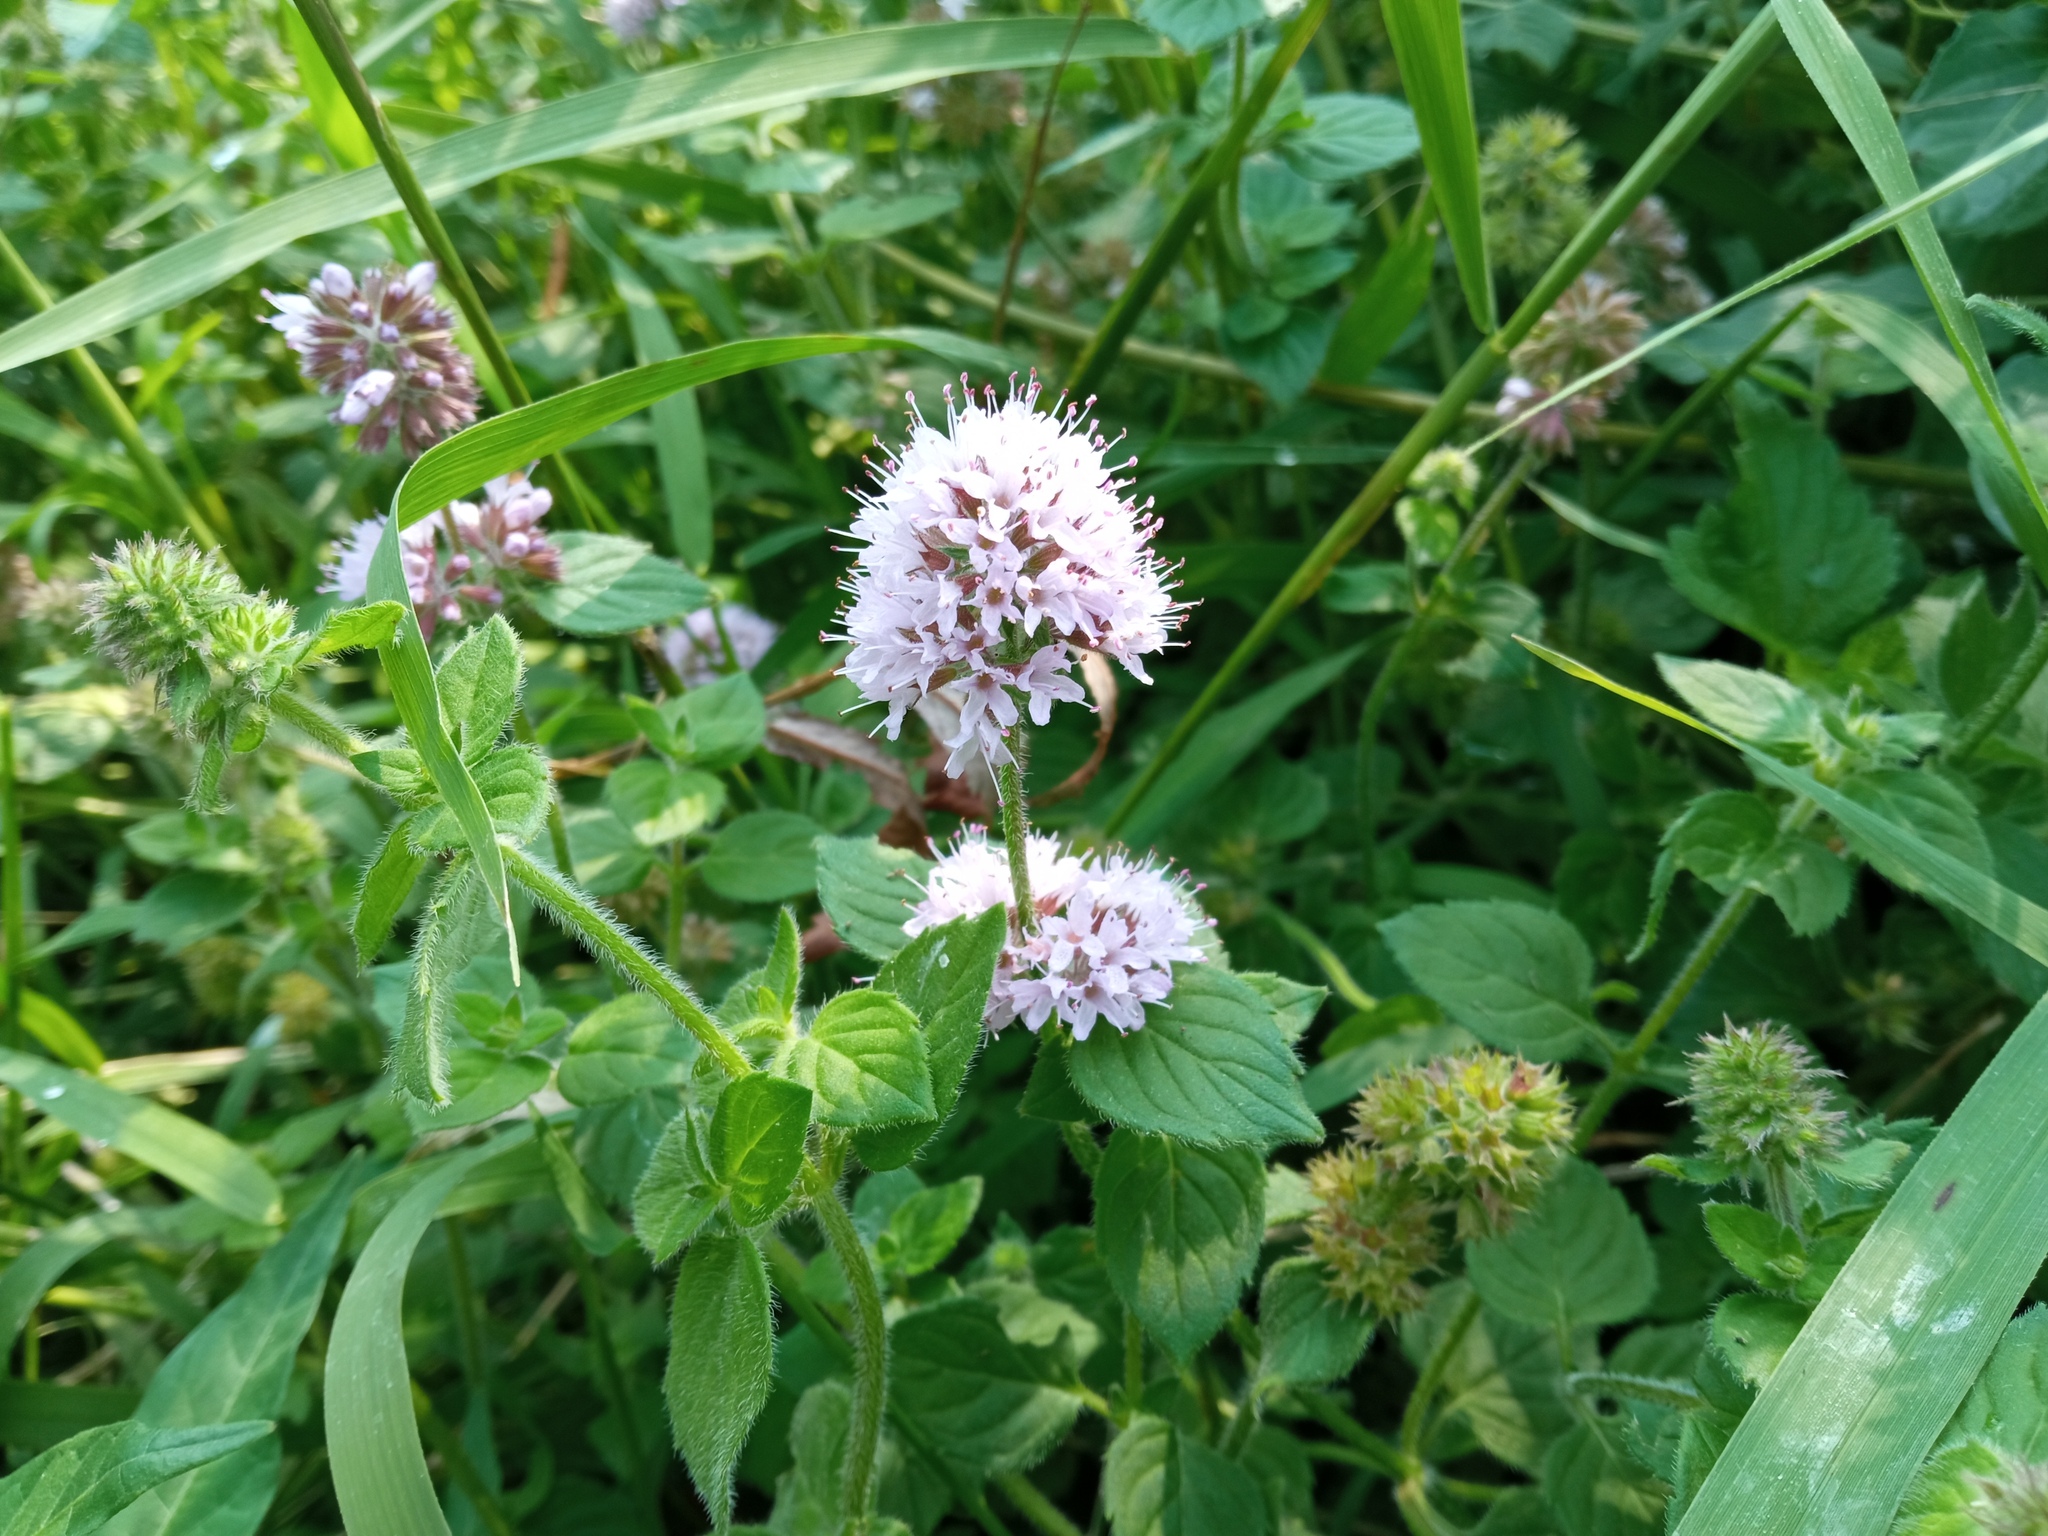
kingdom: Plantae
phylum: Tracheophyta
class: Magnoliopsida
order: Lamiales
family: Lamiaceae
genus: Mentha
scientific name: Mentha aquatica
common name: Water mint
